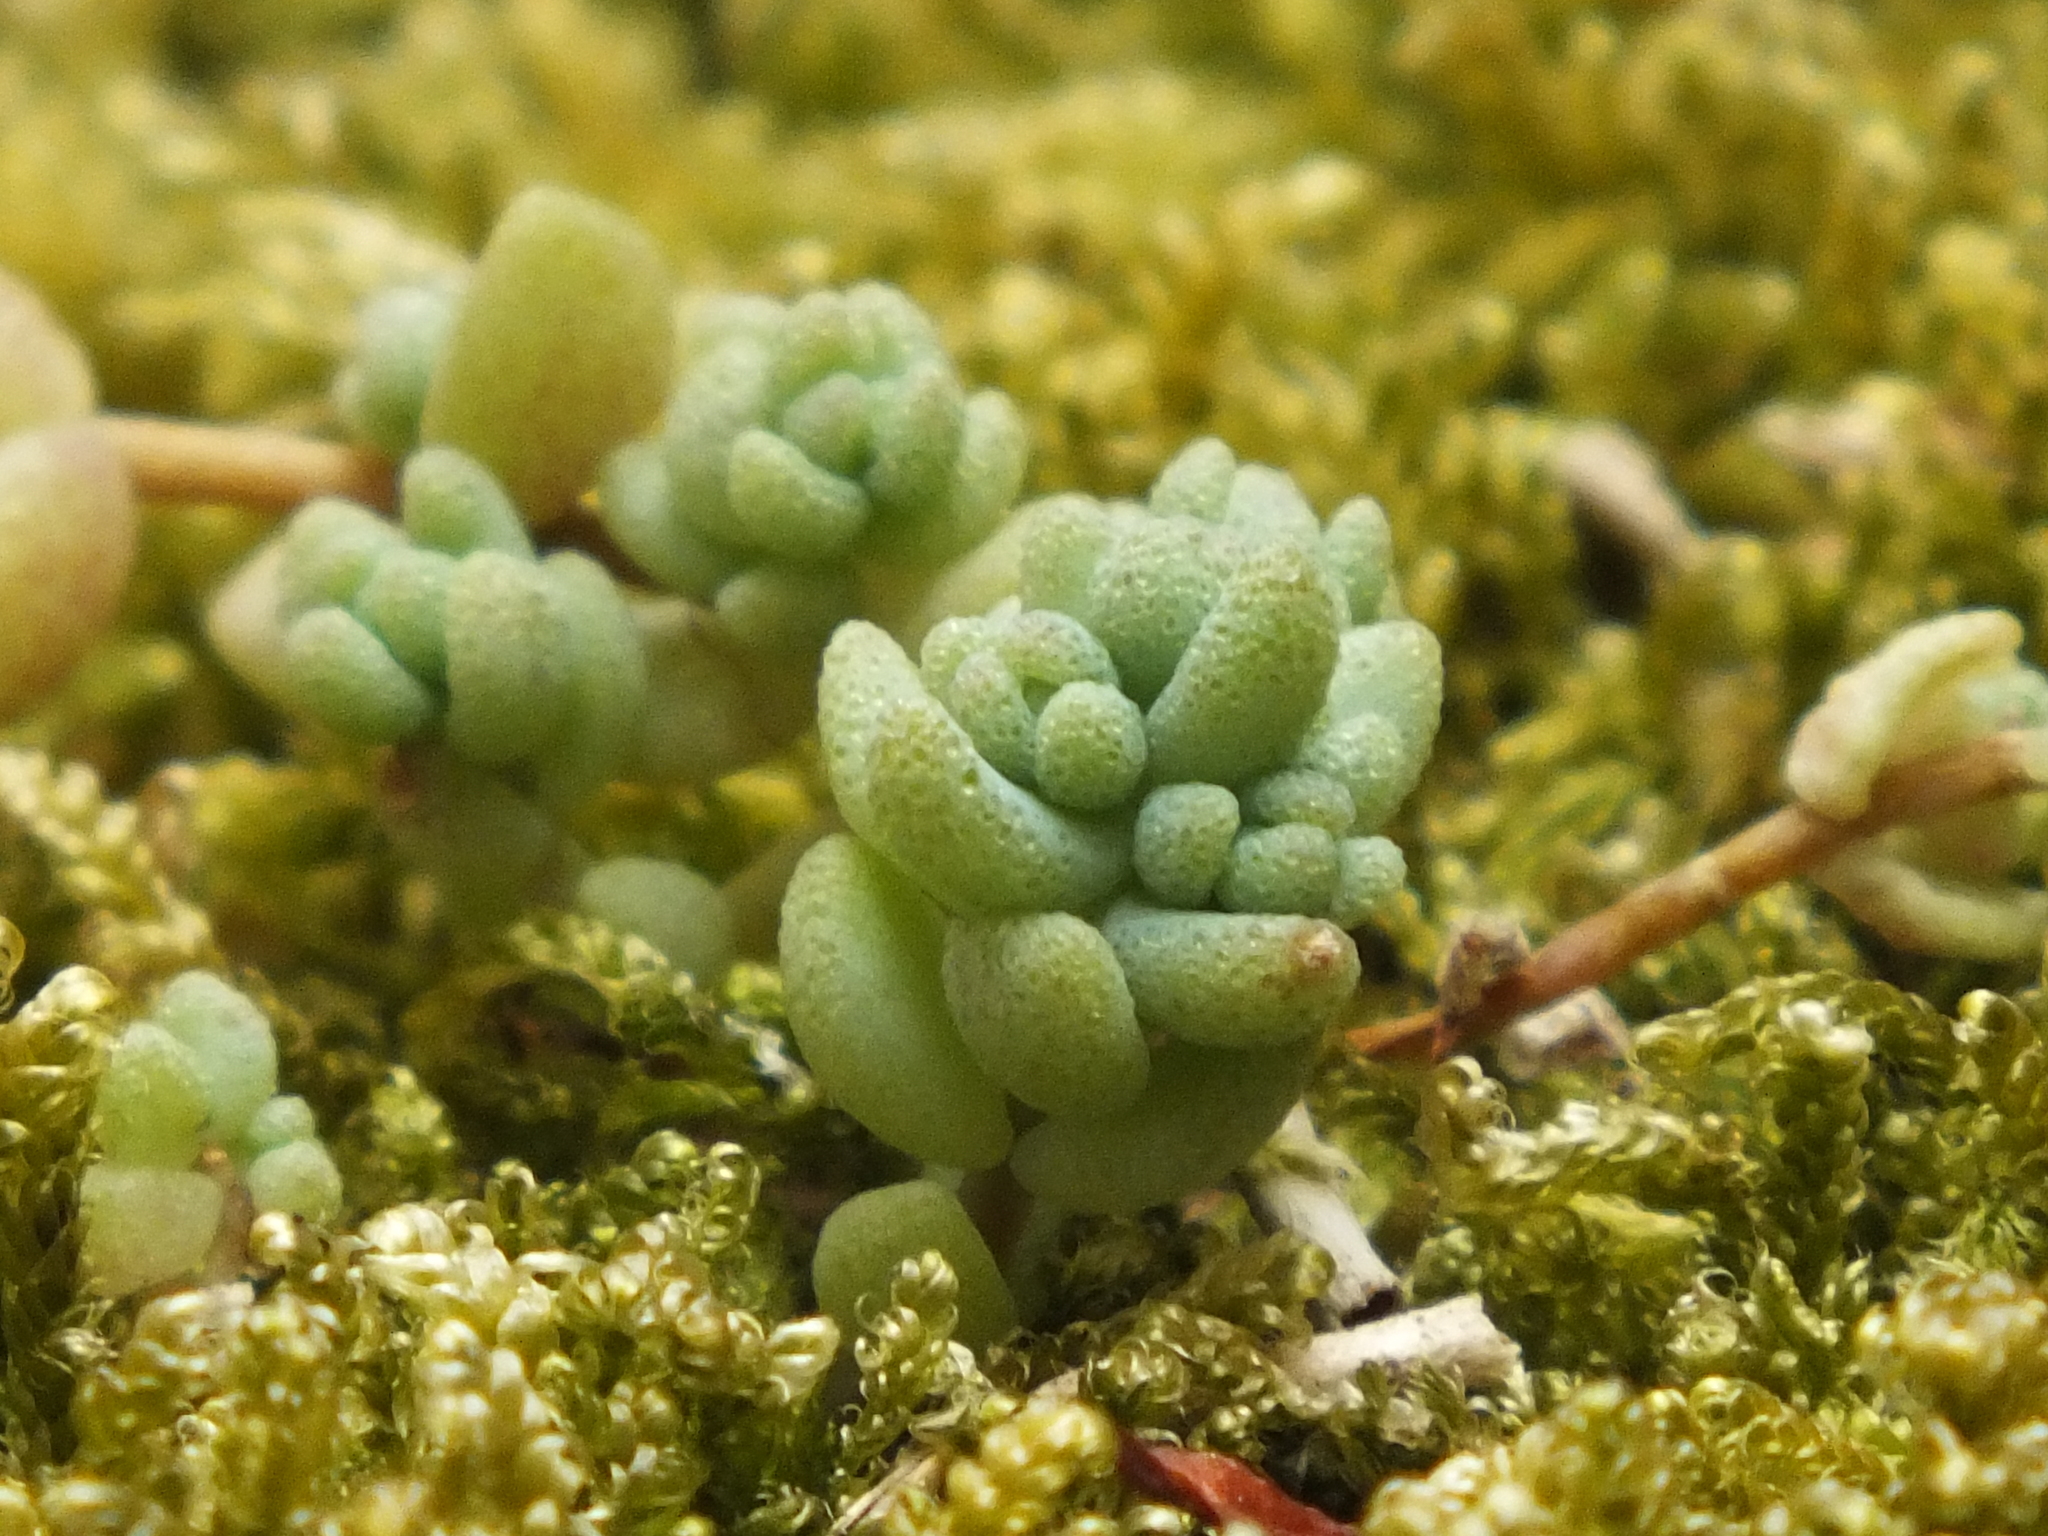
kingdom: Plantae
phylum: Tracheophyta
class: Magnoliopsida
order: Saxifragales
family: Crassulaceae
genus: Sedum
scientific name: Sedum dasyphyllum
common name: Thick-leaf stonecrop
